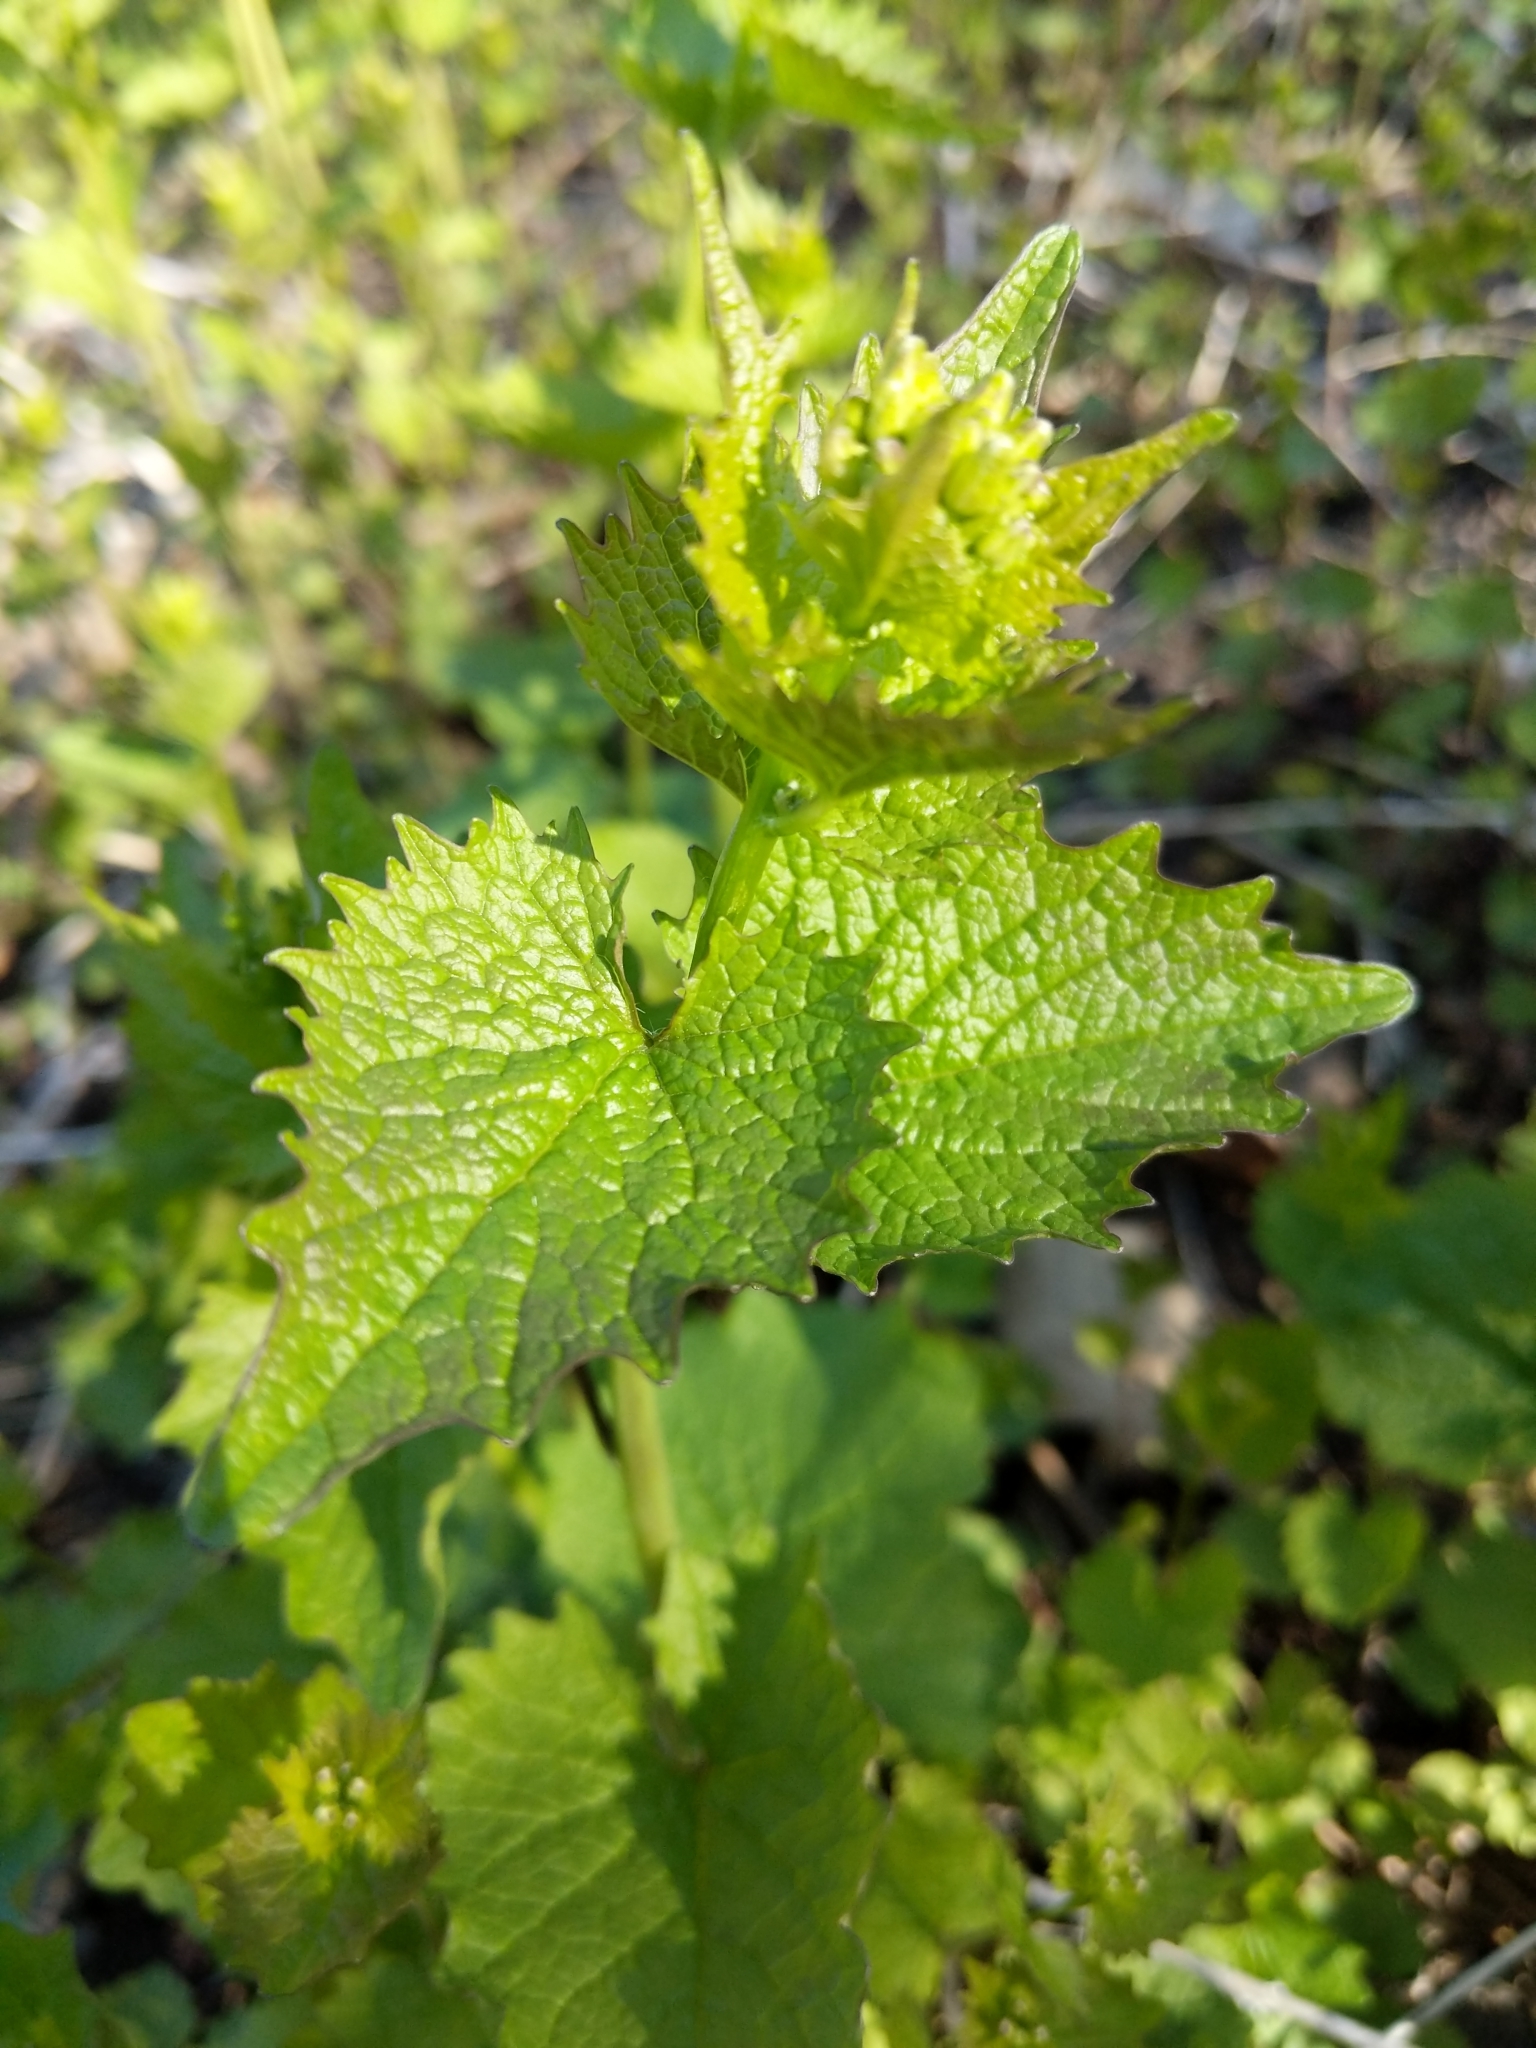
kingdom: Plantae
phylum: Tracheophyta
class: Magnoliopsida
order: Brassicales
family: Brassicaceae
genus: Alliaria
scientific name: Alliaria petiolata
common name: Garlic mustard
